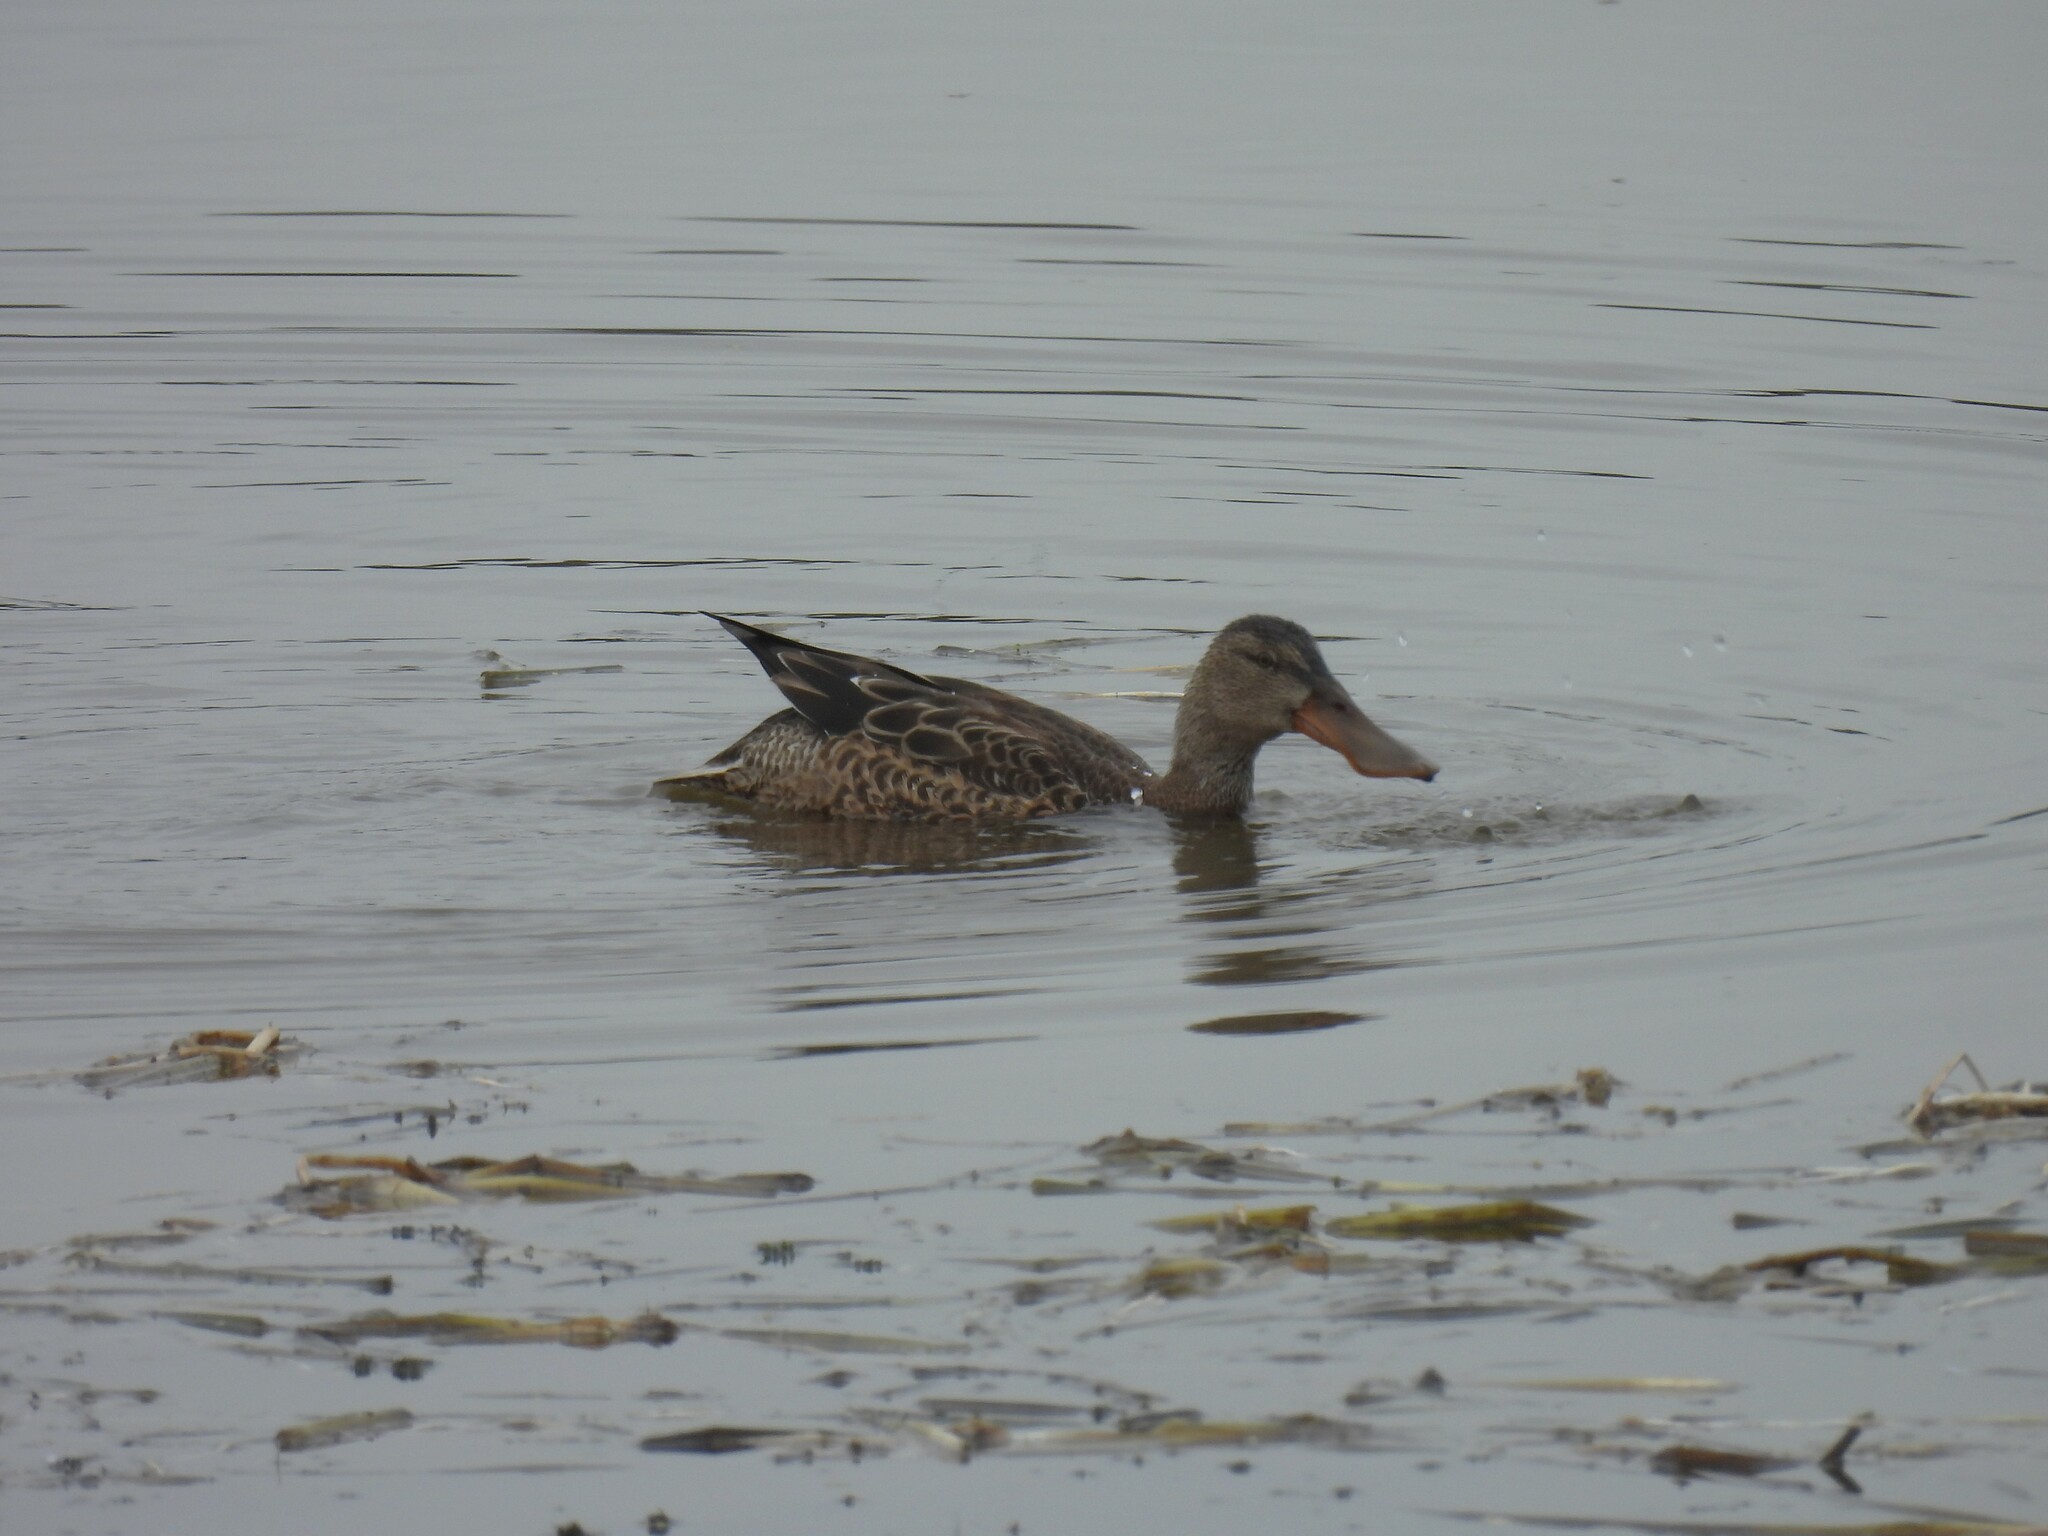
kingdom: Animalia
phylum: Chordata
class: Aves
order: Anseriformes
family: Anatidae
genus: Spatula
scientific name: Spatula clypeata
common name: Northern shoveler
